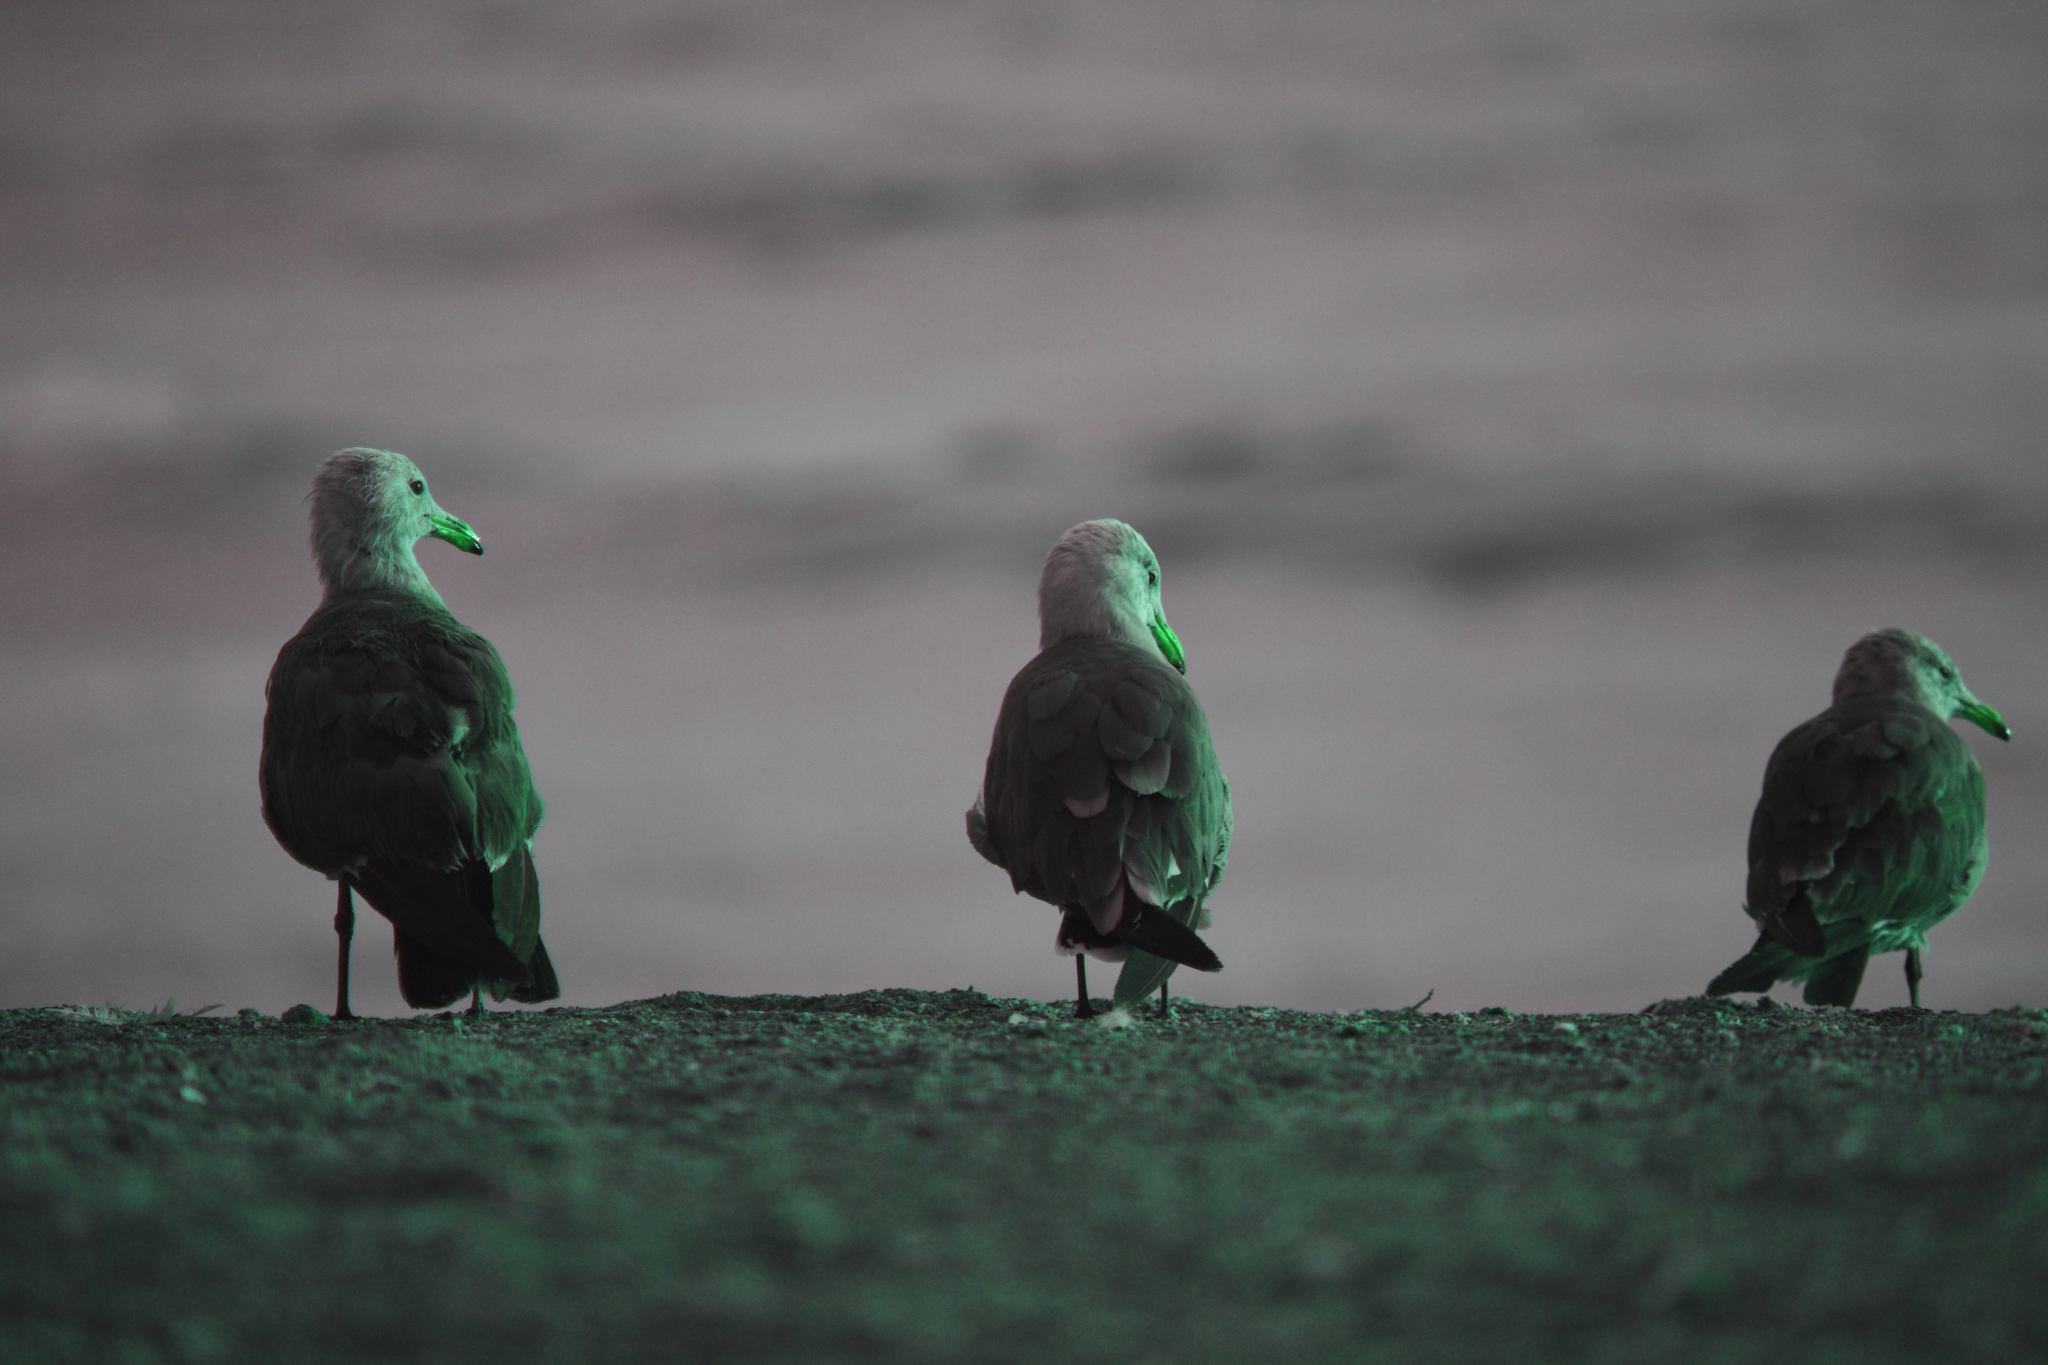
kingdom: Animalia
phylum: Chordata
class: Aves
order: Charadriiformes
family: Laridae
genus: Larus
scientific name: Larus heermanni
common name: Heermann's gull
